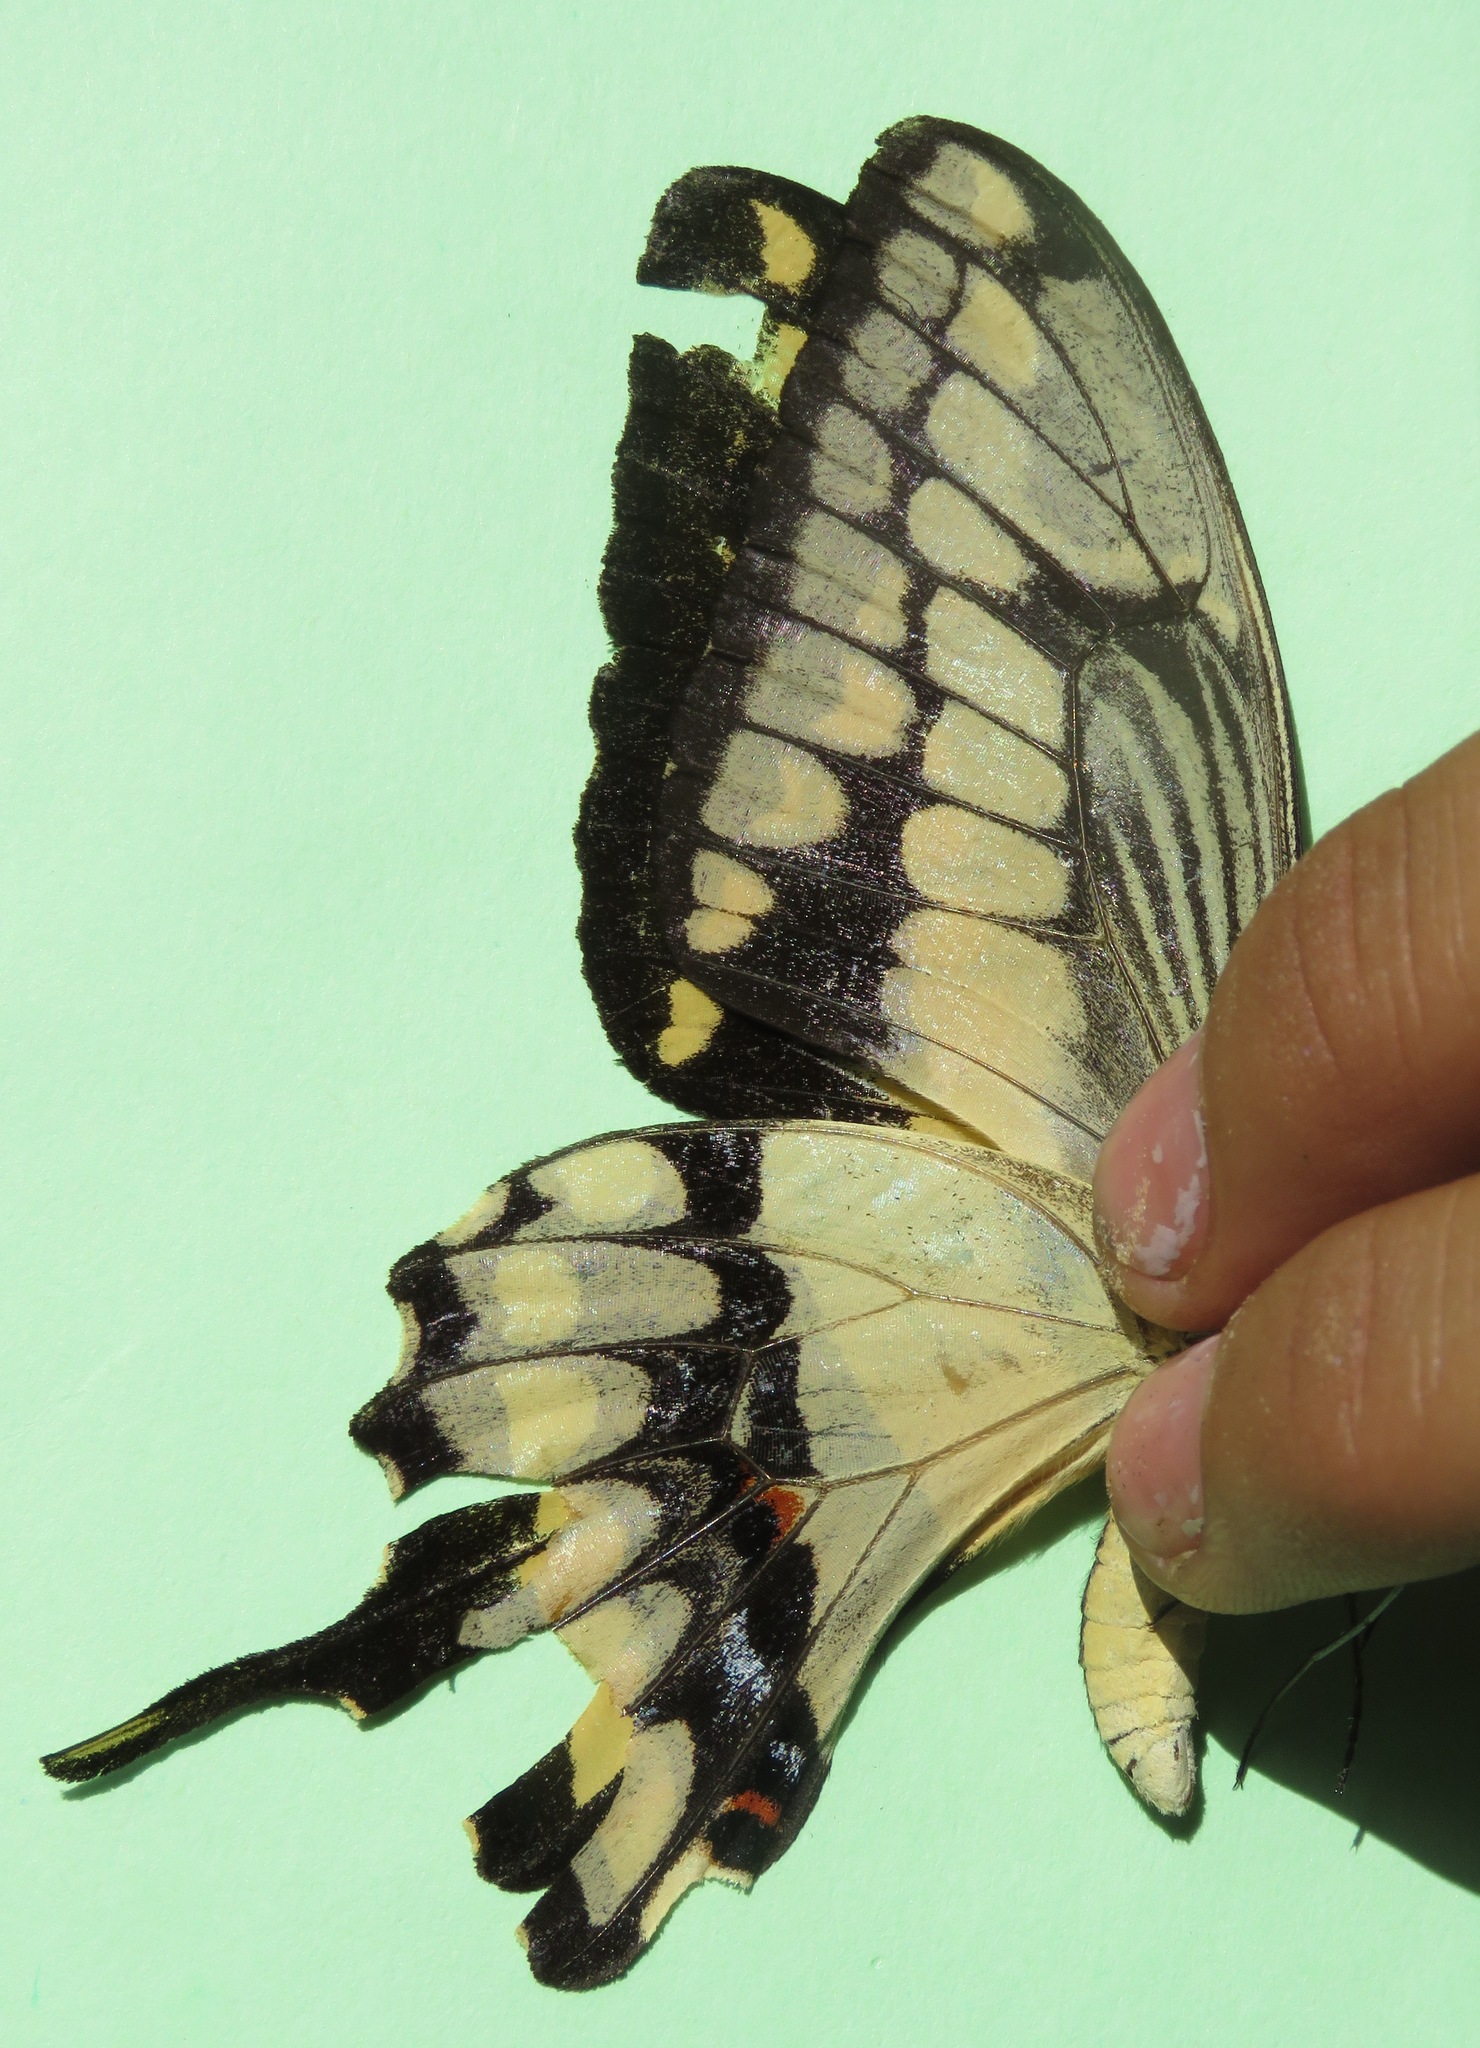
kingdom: Animalia
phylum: Arthropoda
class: Insecta
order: Lepidoptera
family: Papilionidae
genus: Papilio
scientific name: Papilio thoas
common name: King swallowtail
